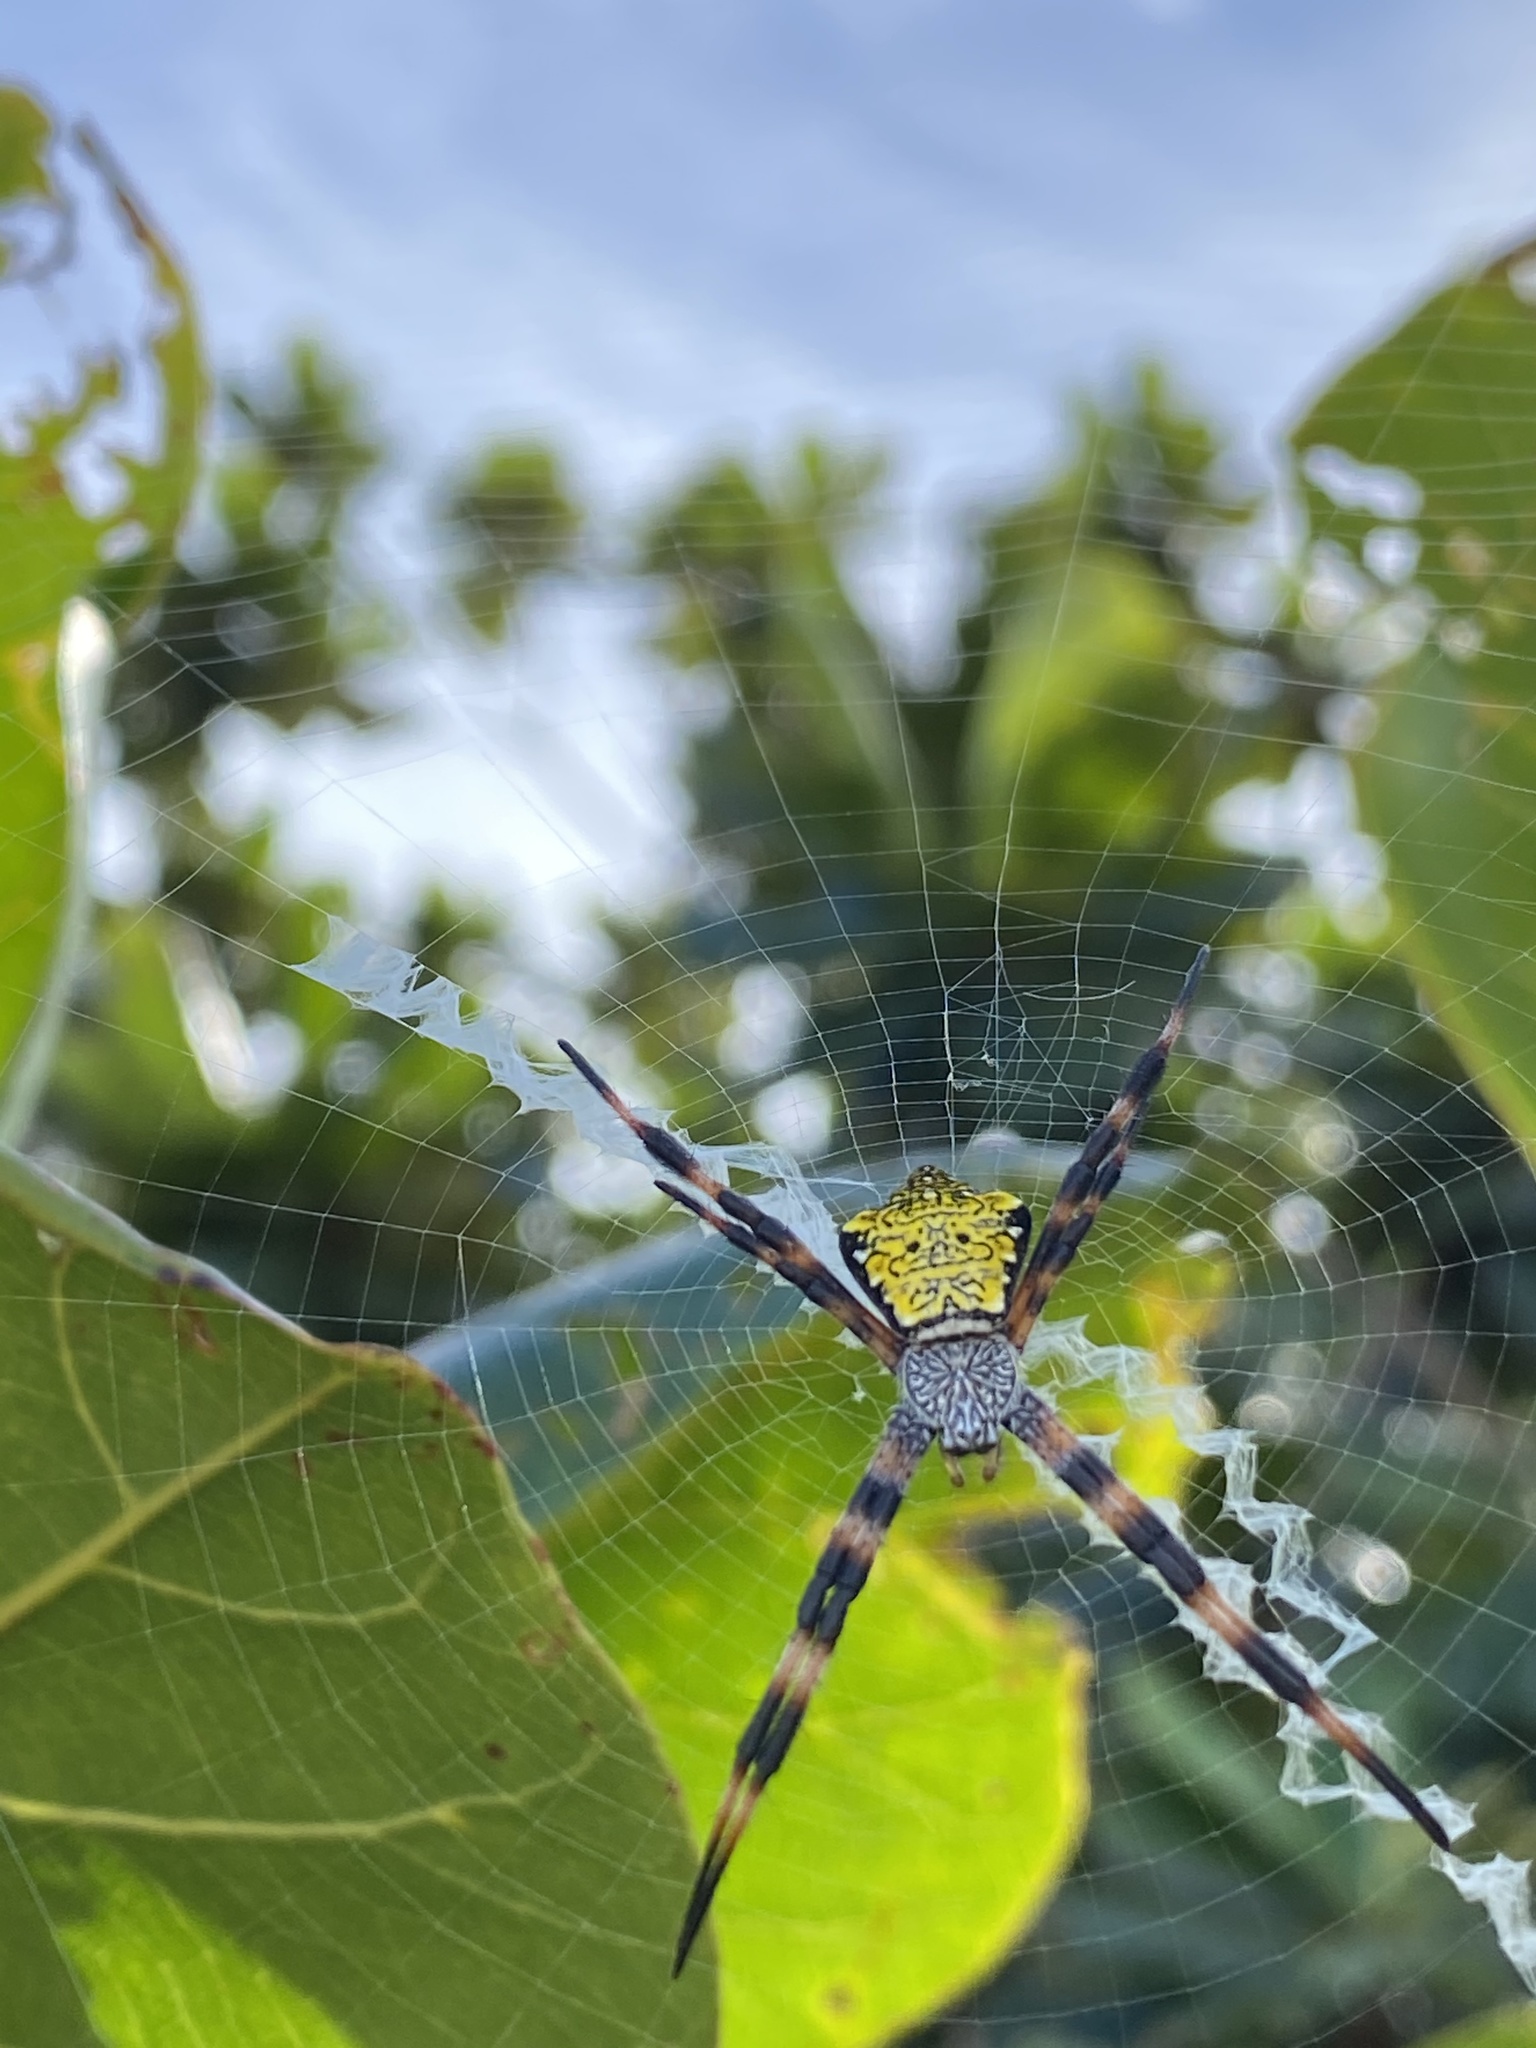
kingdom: Animalia
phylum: Arthropoda
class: Arachnida
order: Araneae
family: Araneidae
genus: Argiope
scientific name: Argiope appensa
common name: Garden spider
